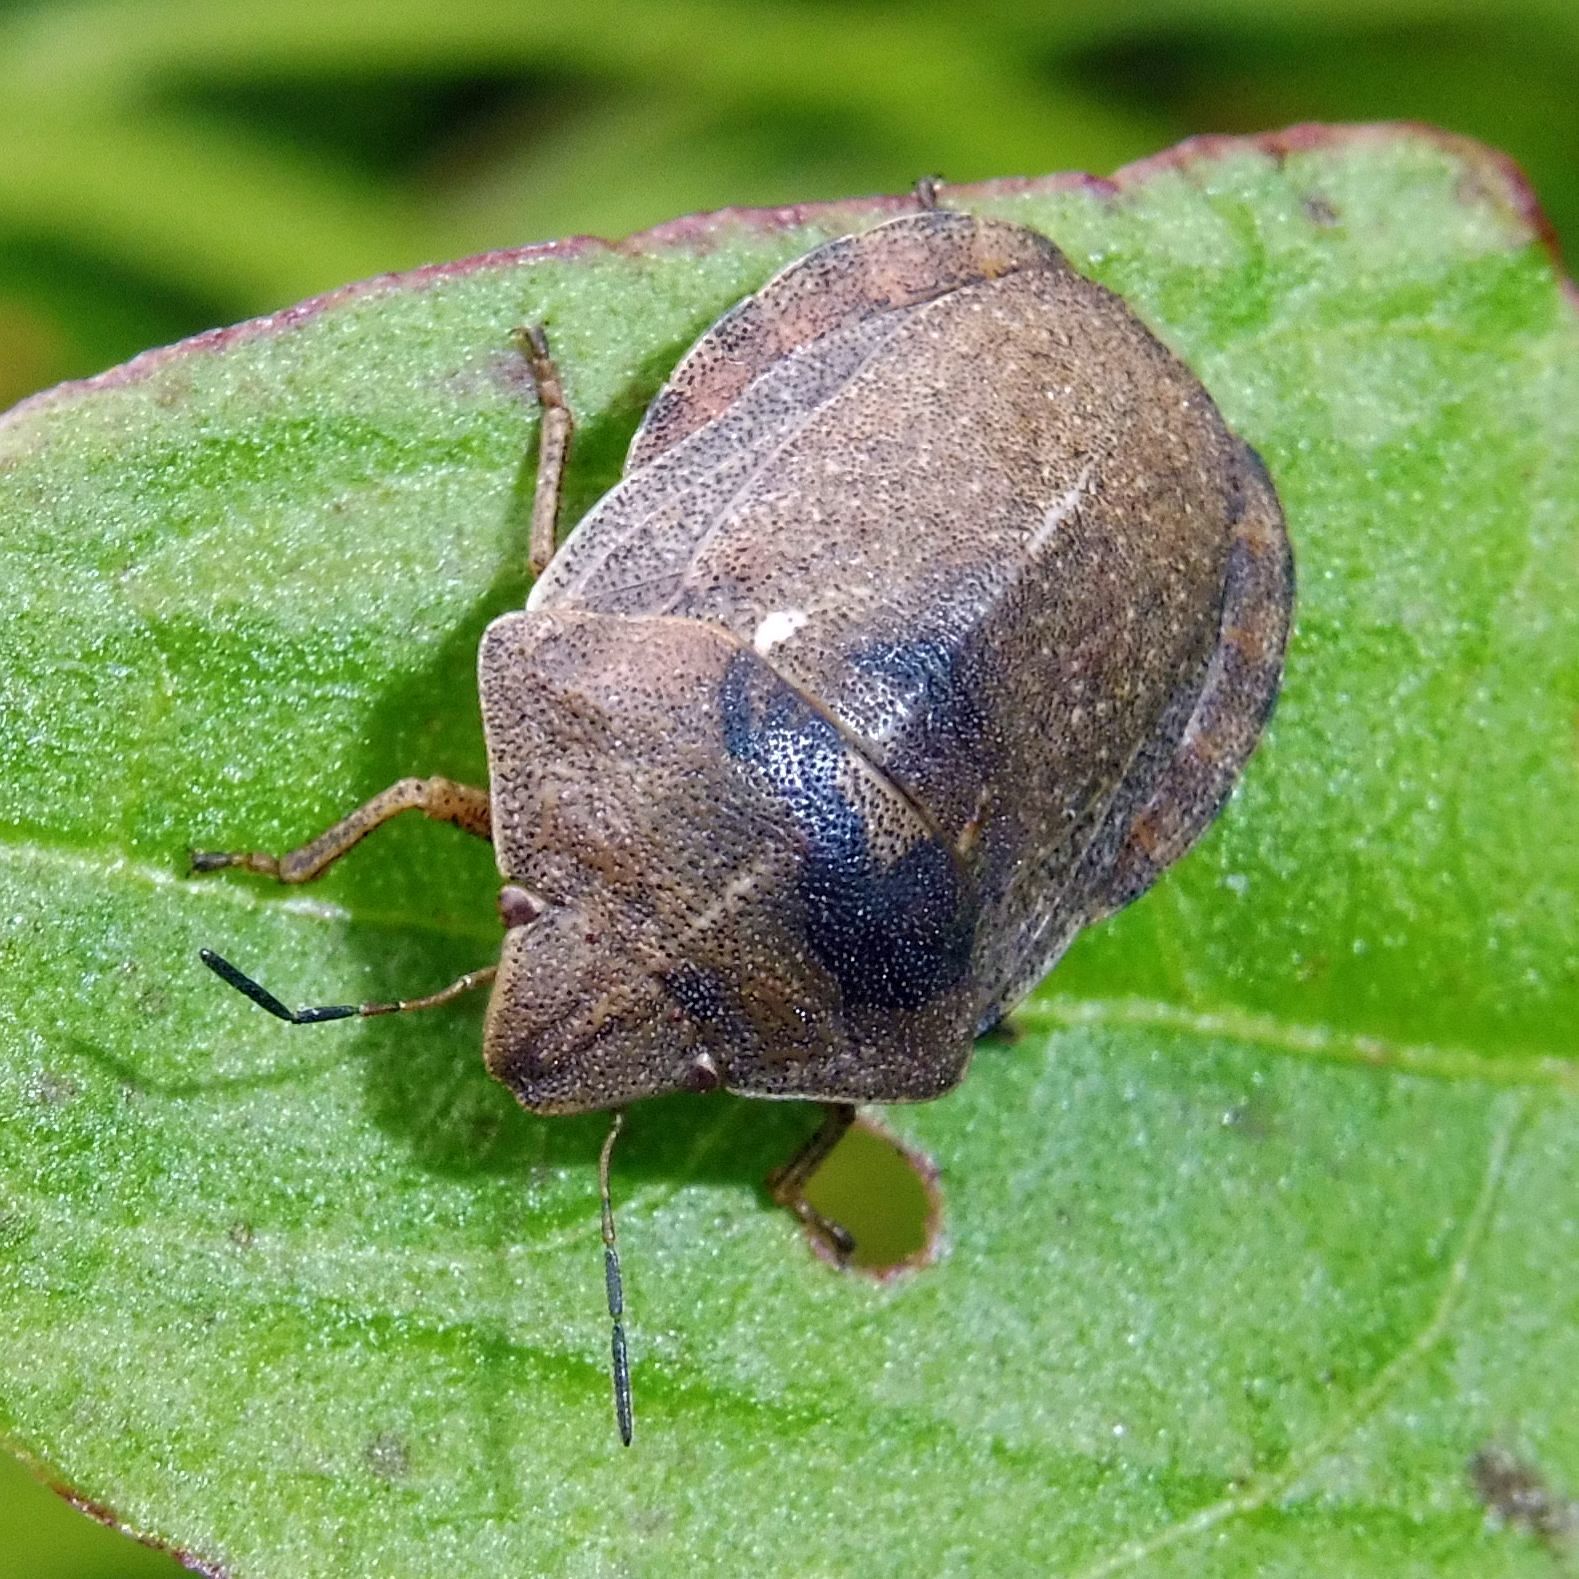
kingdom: Animalia
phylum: Arthropoda
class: Insecta
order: Hemiptera
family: Scutelleridae
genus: Eurygaster
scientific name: Eurygaster testudinaria
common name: Tortoise bug
